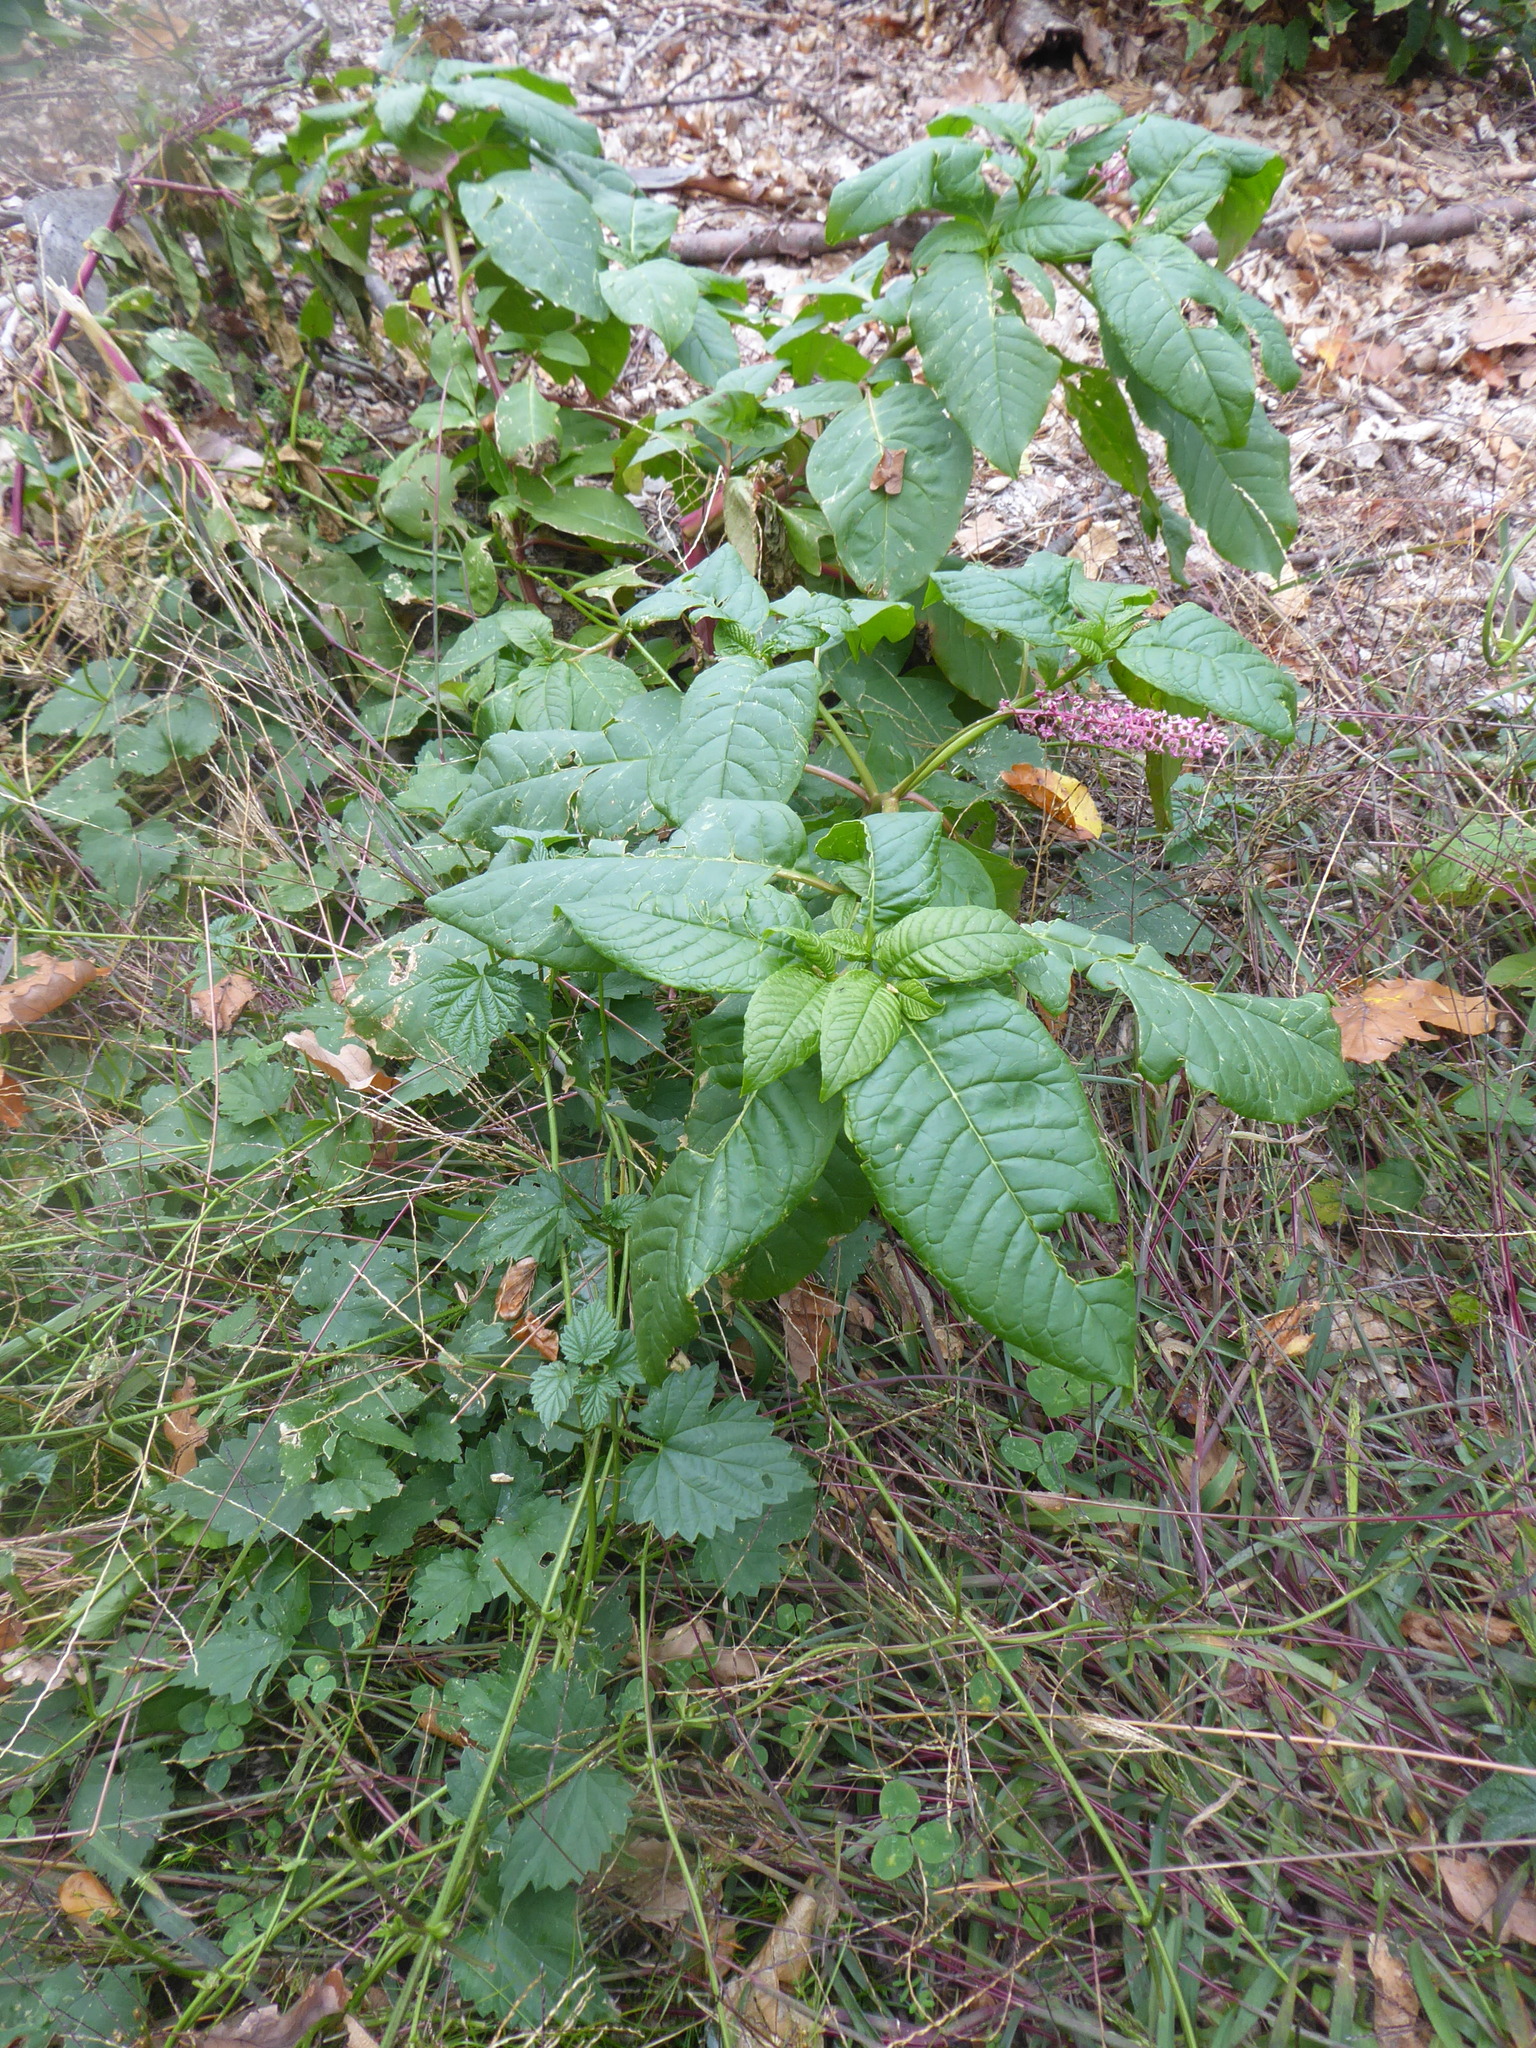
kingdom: Plantae
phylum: Tracheophyta
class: Magnoliopsida
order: Caryophyllales
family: Phytolaccaceae
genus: Phytolacca
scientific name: Phytolacca americana
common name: American pokeweed
